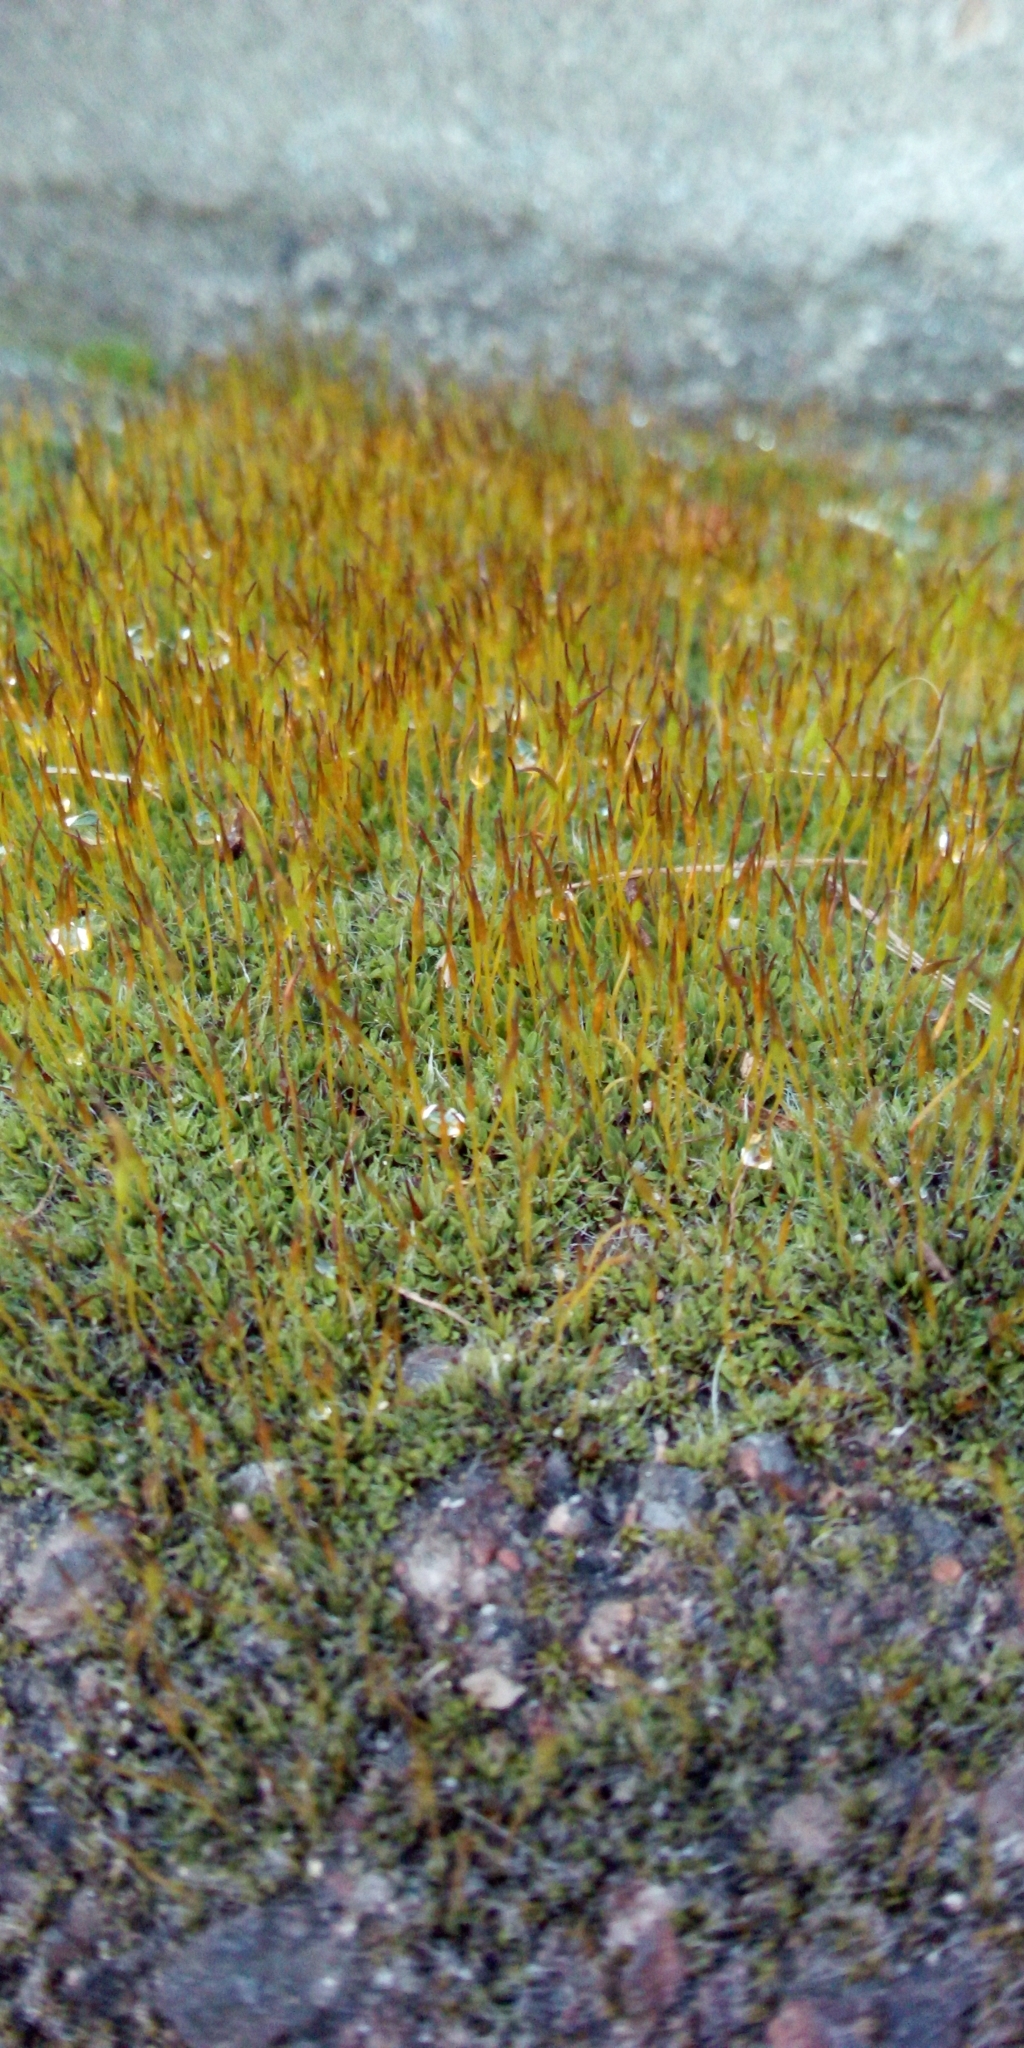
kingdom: Plantae
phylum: Bryophyta
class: Bryopsida
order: Pottiales
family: Pottiaceae
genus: Tortula
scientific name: Tortula muralis
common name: Wall screw-moss
